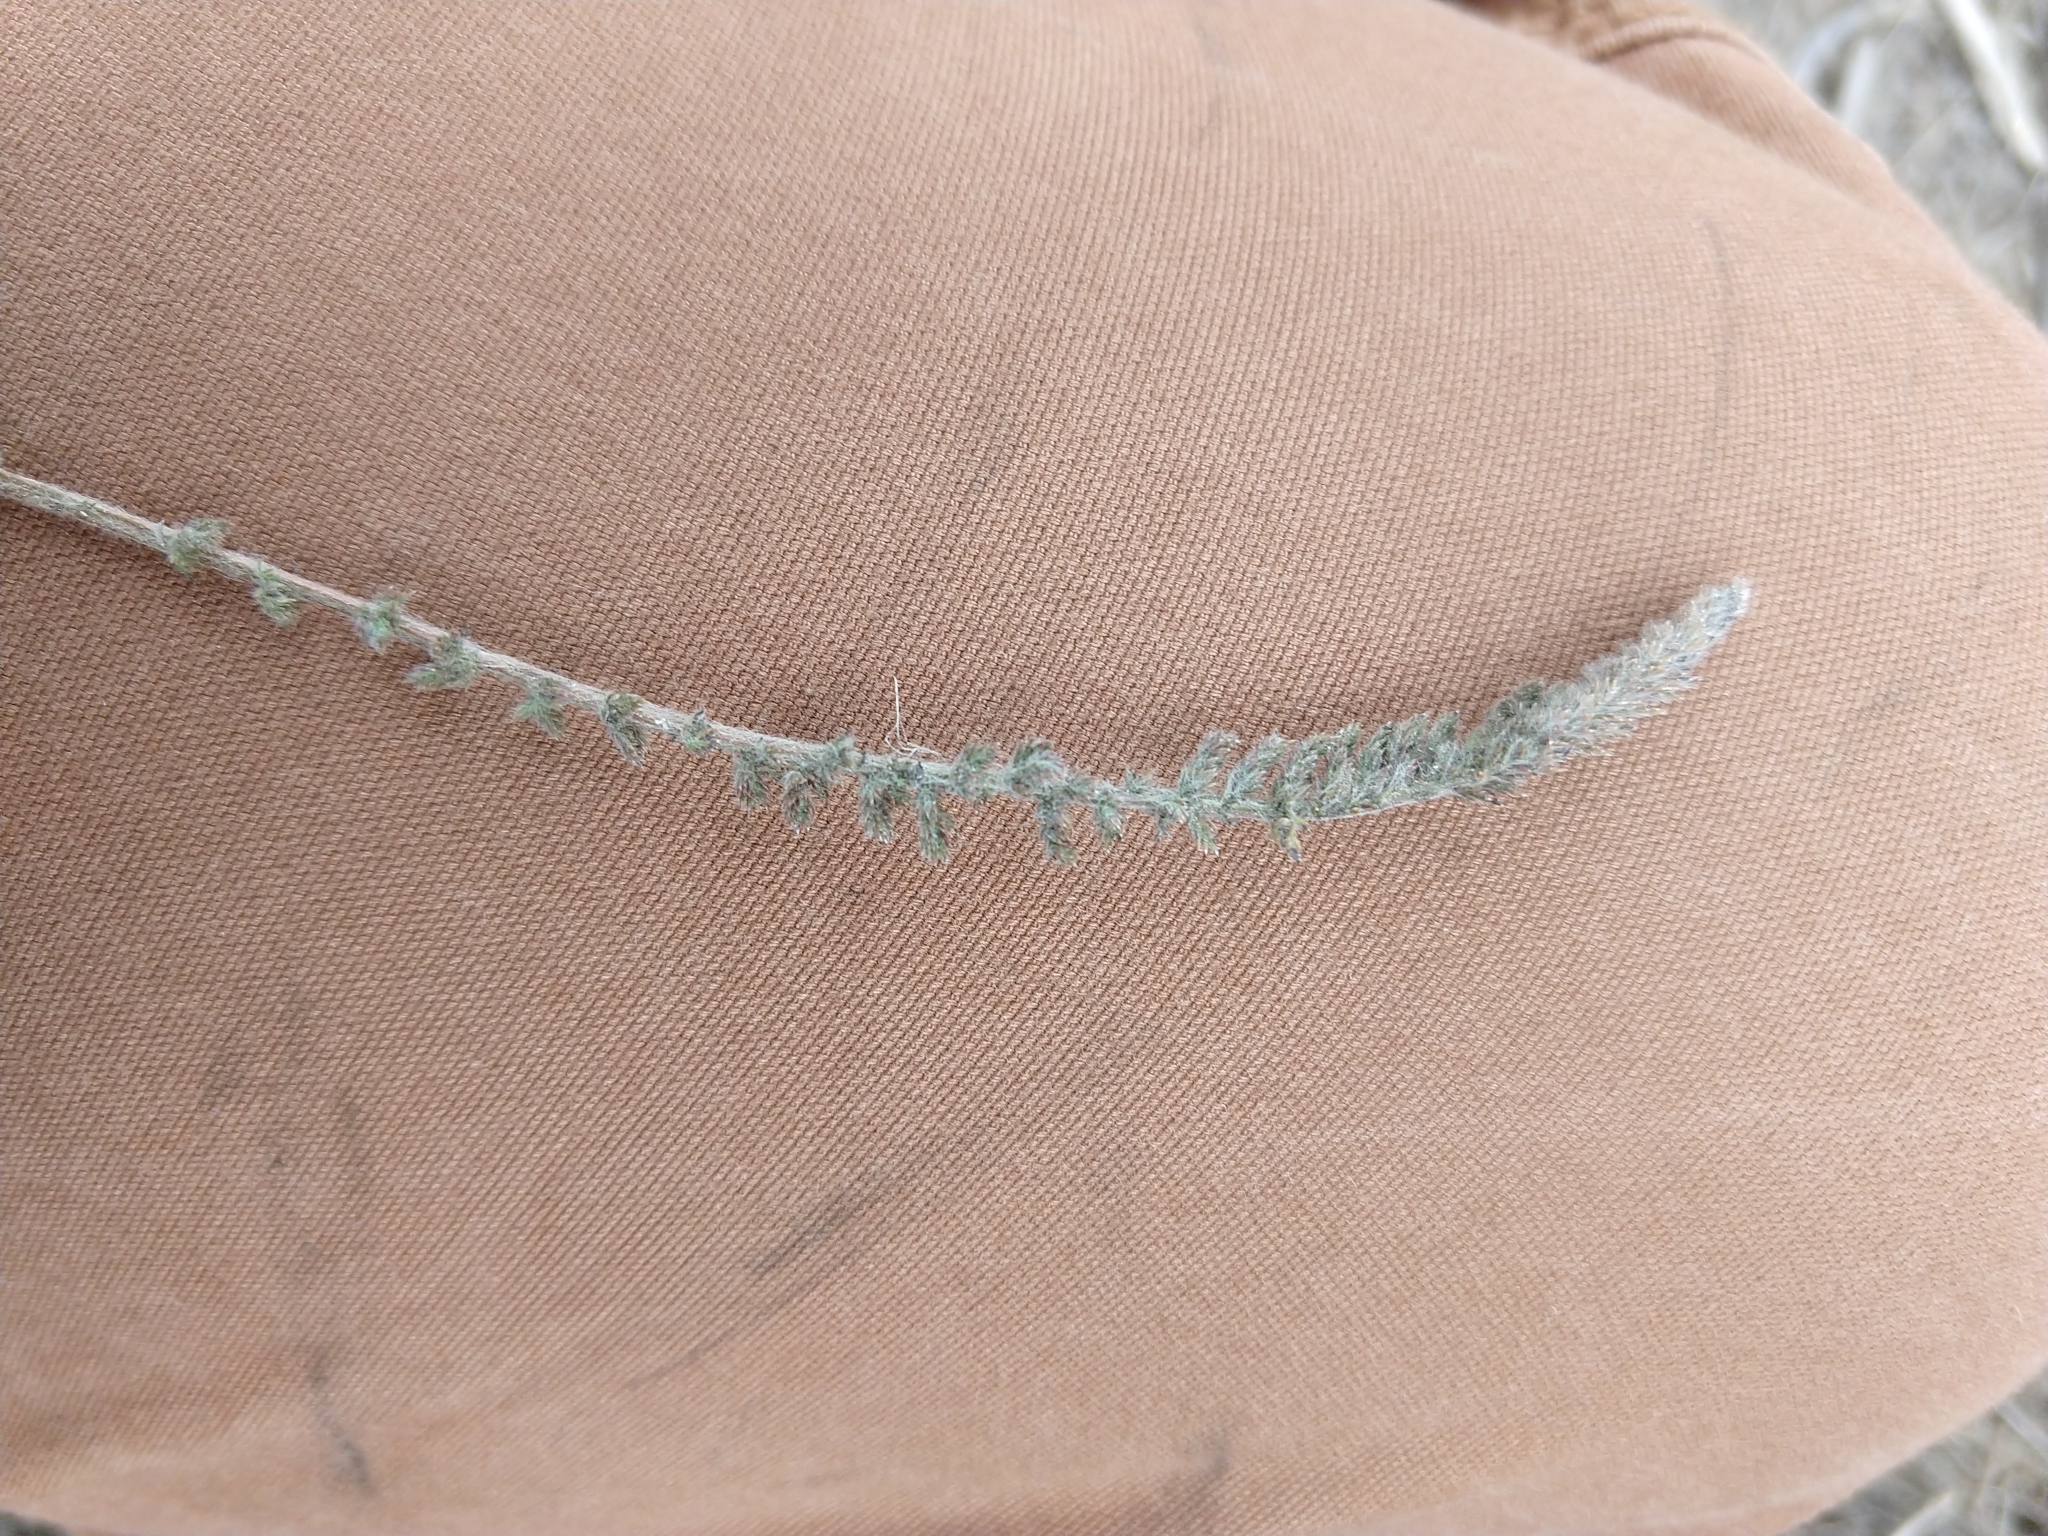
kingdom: Plantae
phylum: Tracheophyta
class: Magnoliopsida
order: Asterales
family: Asteraceae
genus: Achillea
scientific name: Achillea millefolium
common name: Yarrow
